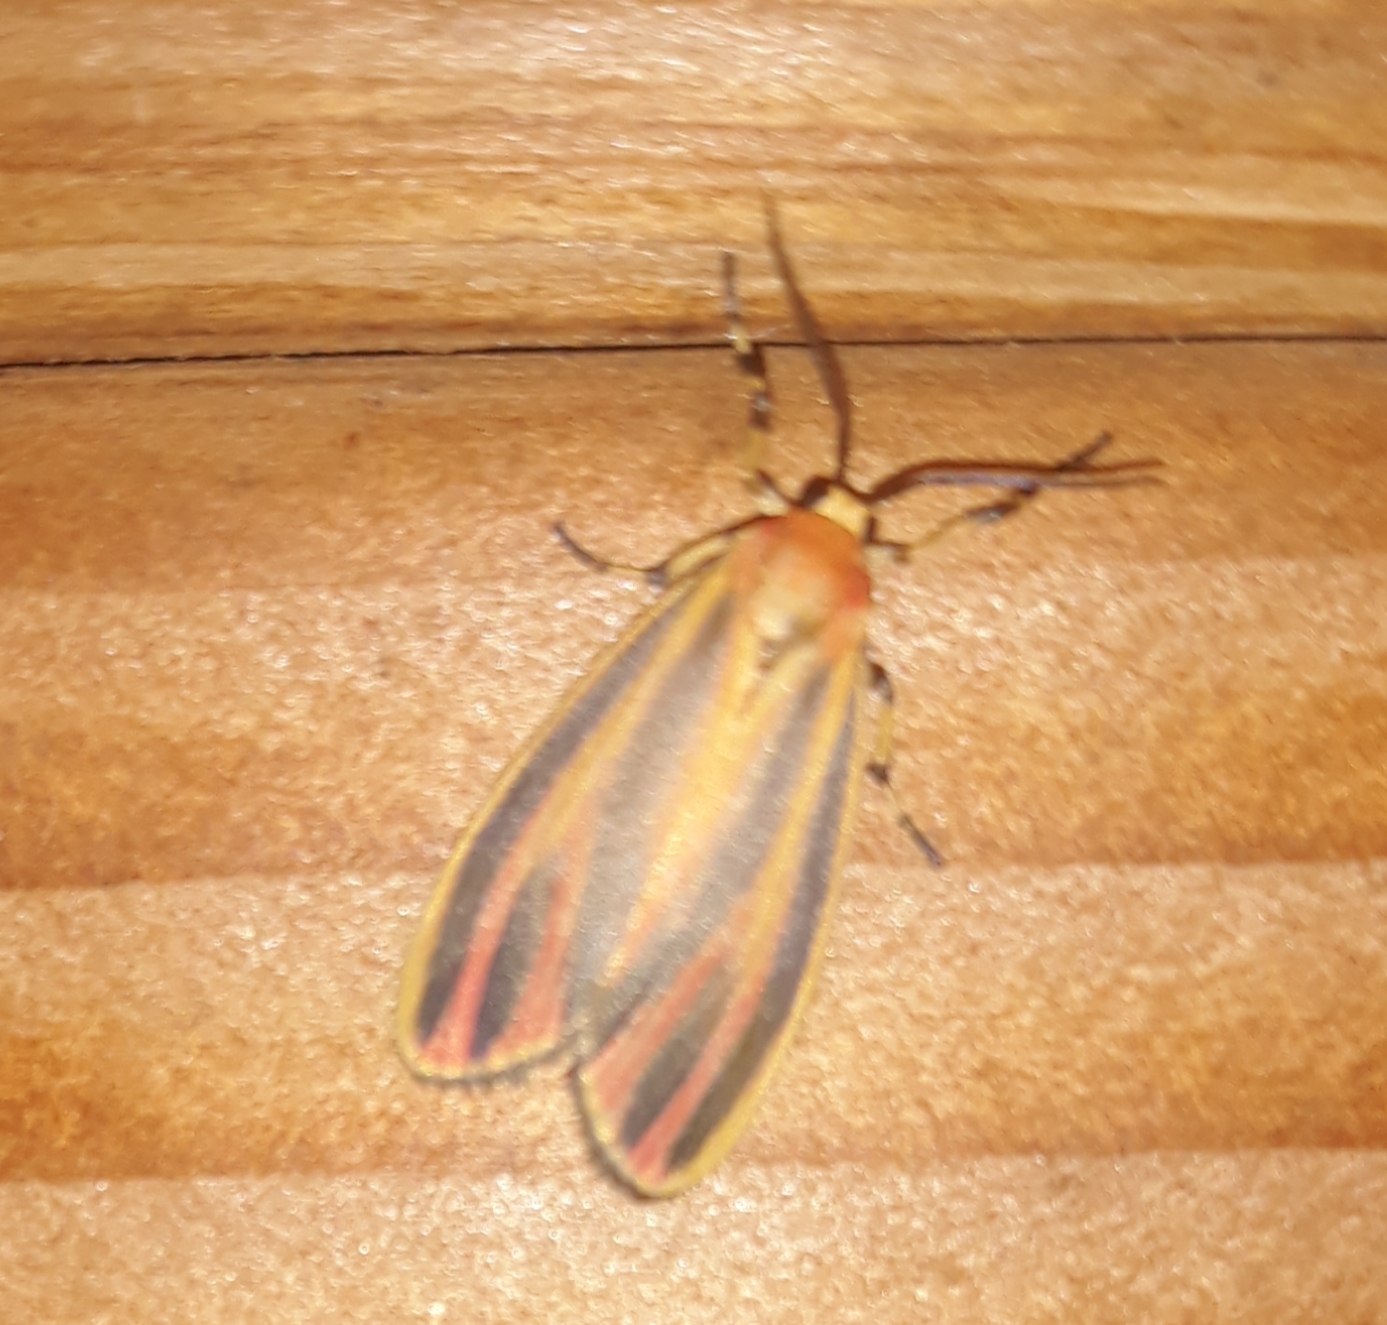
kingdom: Animalia
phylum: Arthropoda
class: Insecta
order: Lepidoptera
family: Erebidae
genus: Hypoprepia
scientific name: Hypoprepia fucosa
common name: Painted lichen moth
